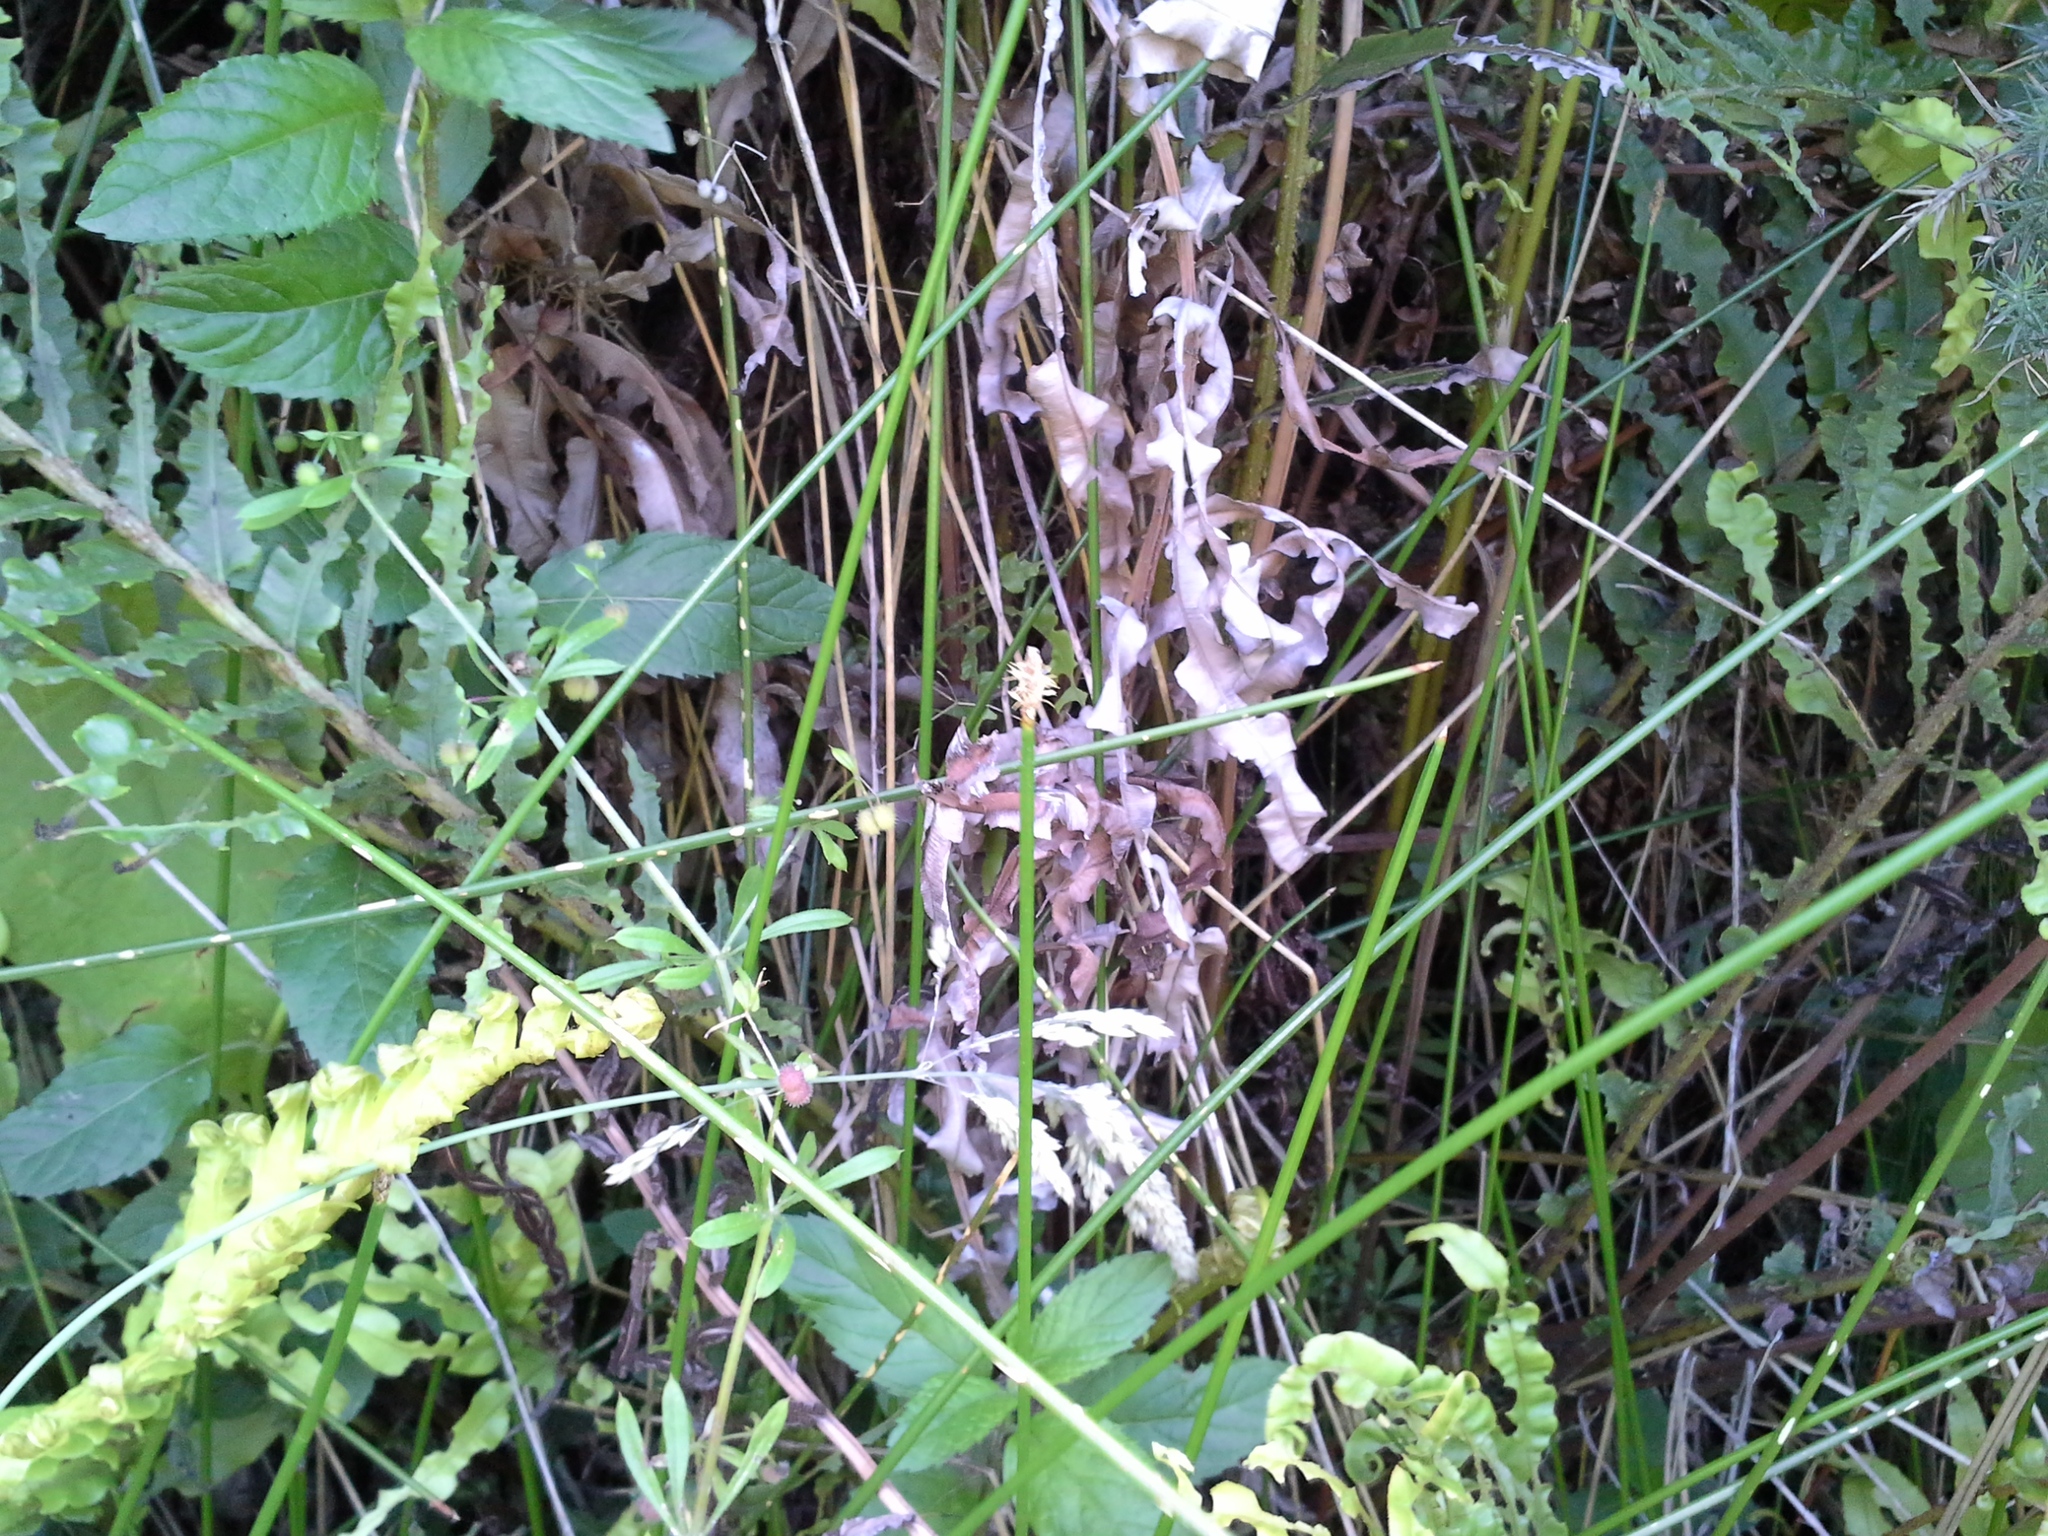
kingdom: Plantae
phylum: Tracheophyta
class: Liliopsida
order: Poales
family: Cyperaceae
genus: Eleocharis
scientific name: Eleocharis acuta
